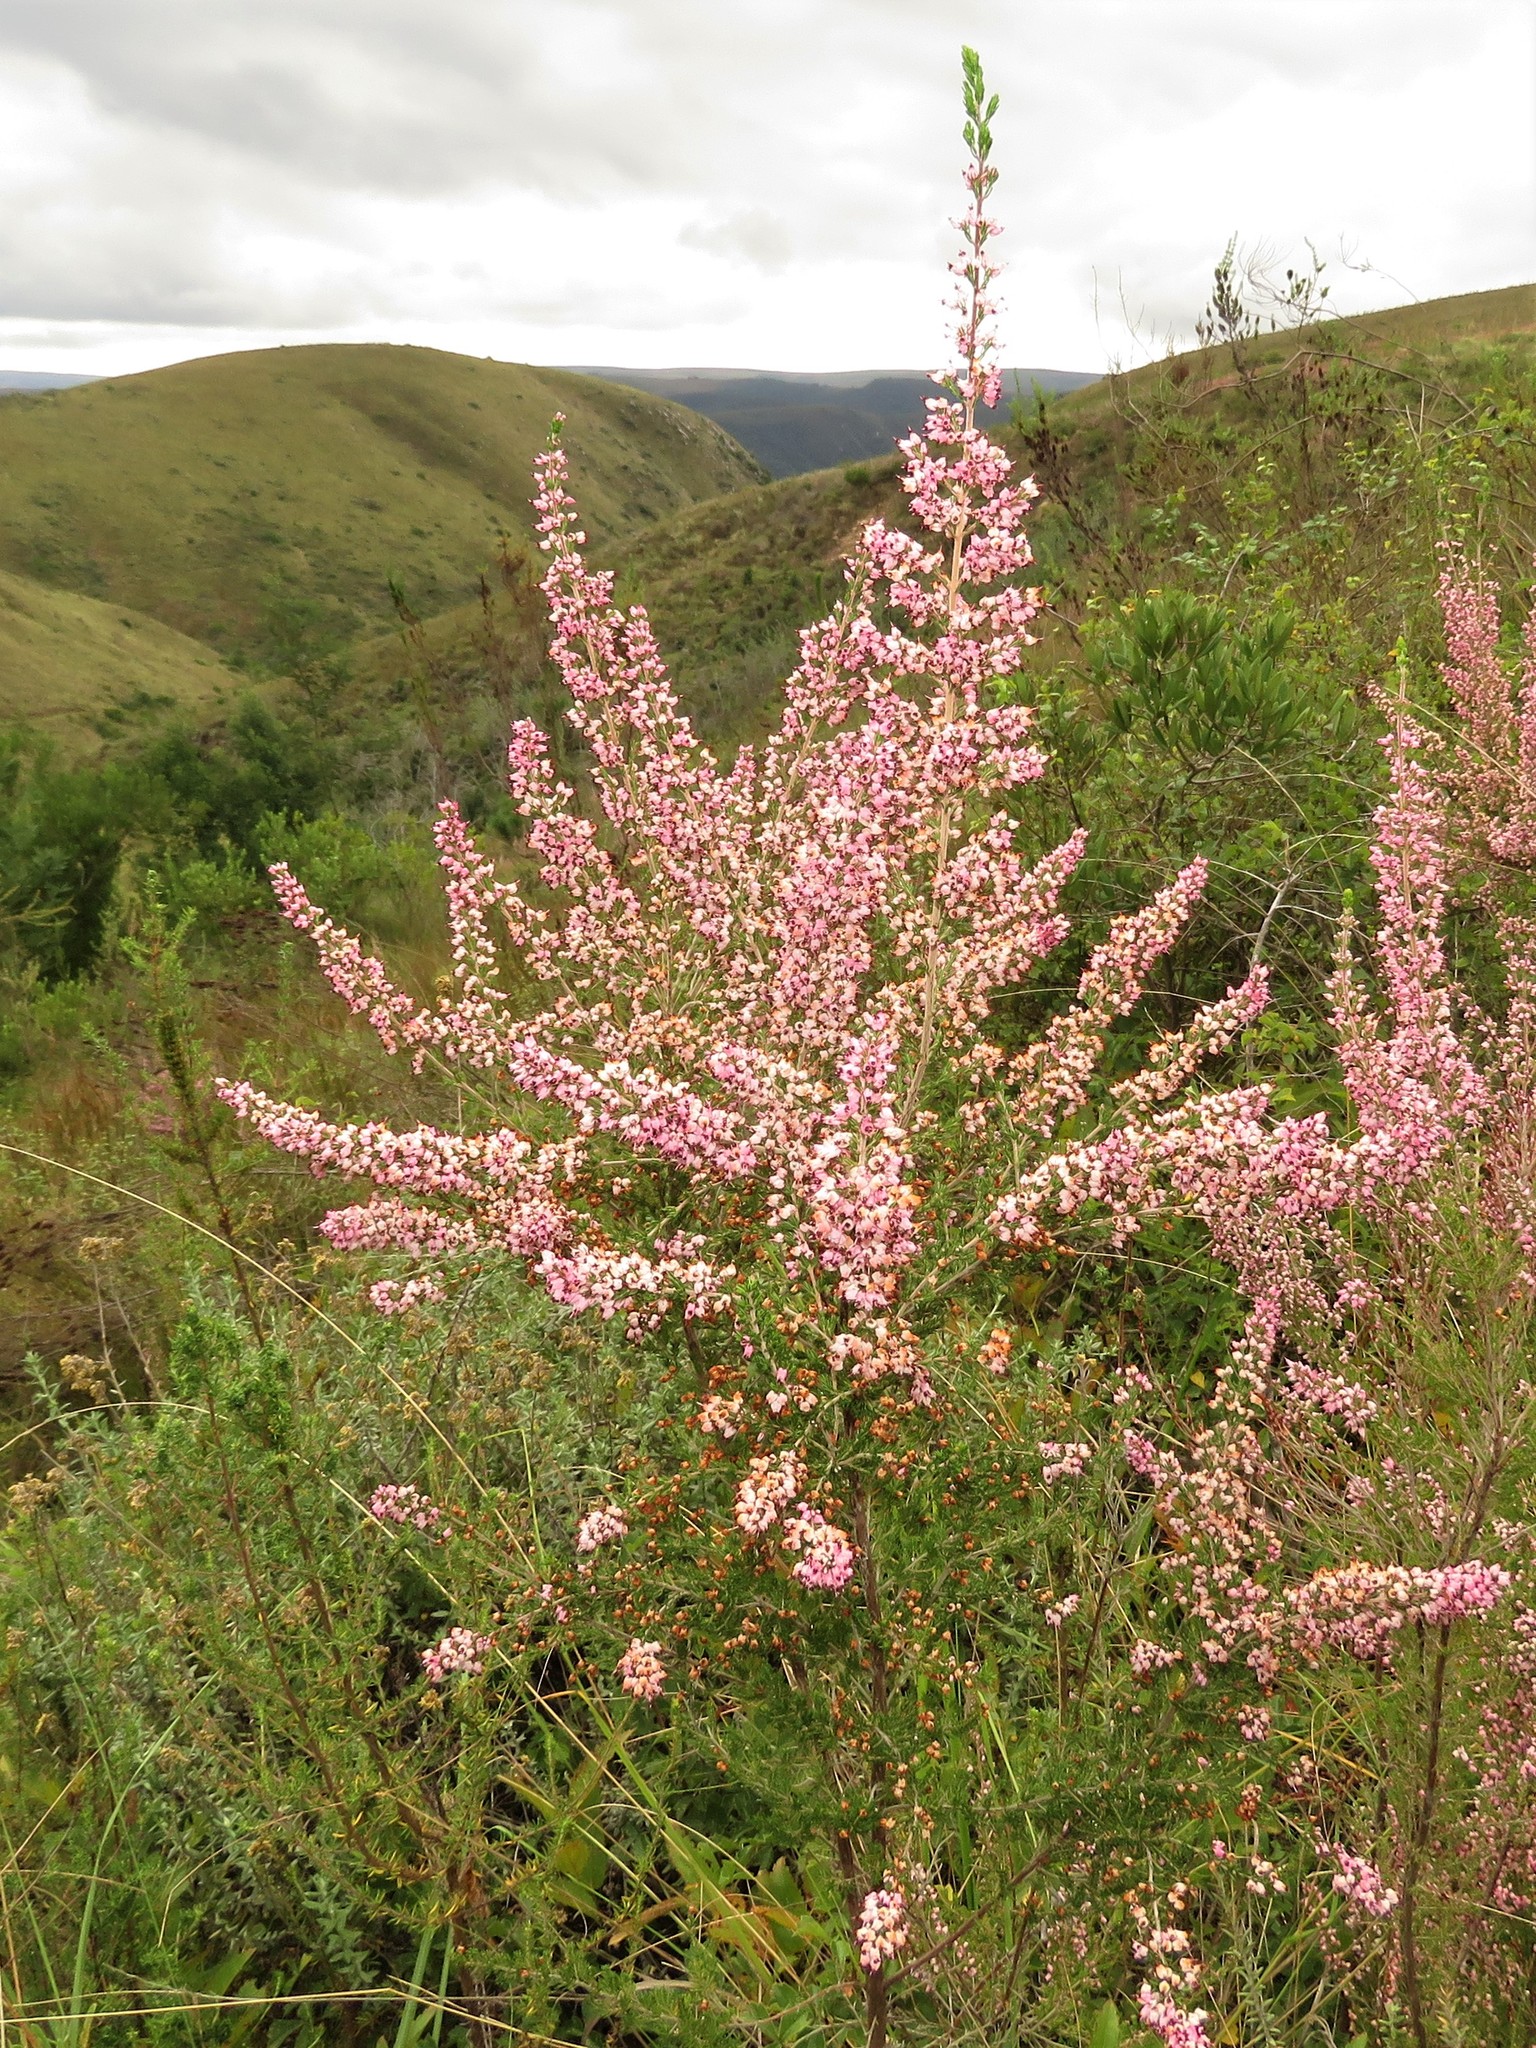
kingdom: Plantae
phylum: Tracheophyta
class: Magnoliopsida
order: Ericales
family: Ericaceae
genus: Erica
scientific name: Erica trivialis
